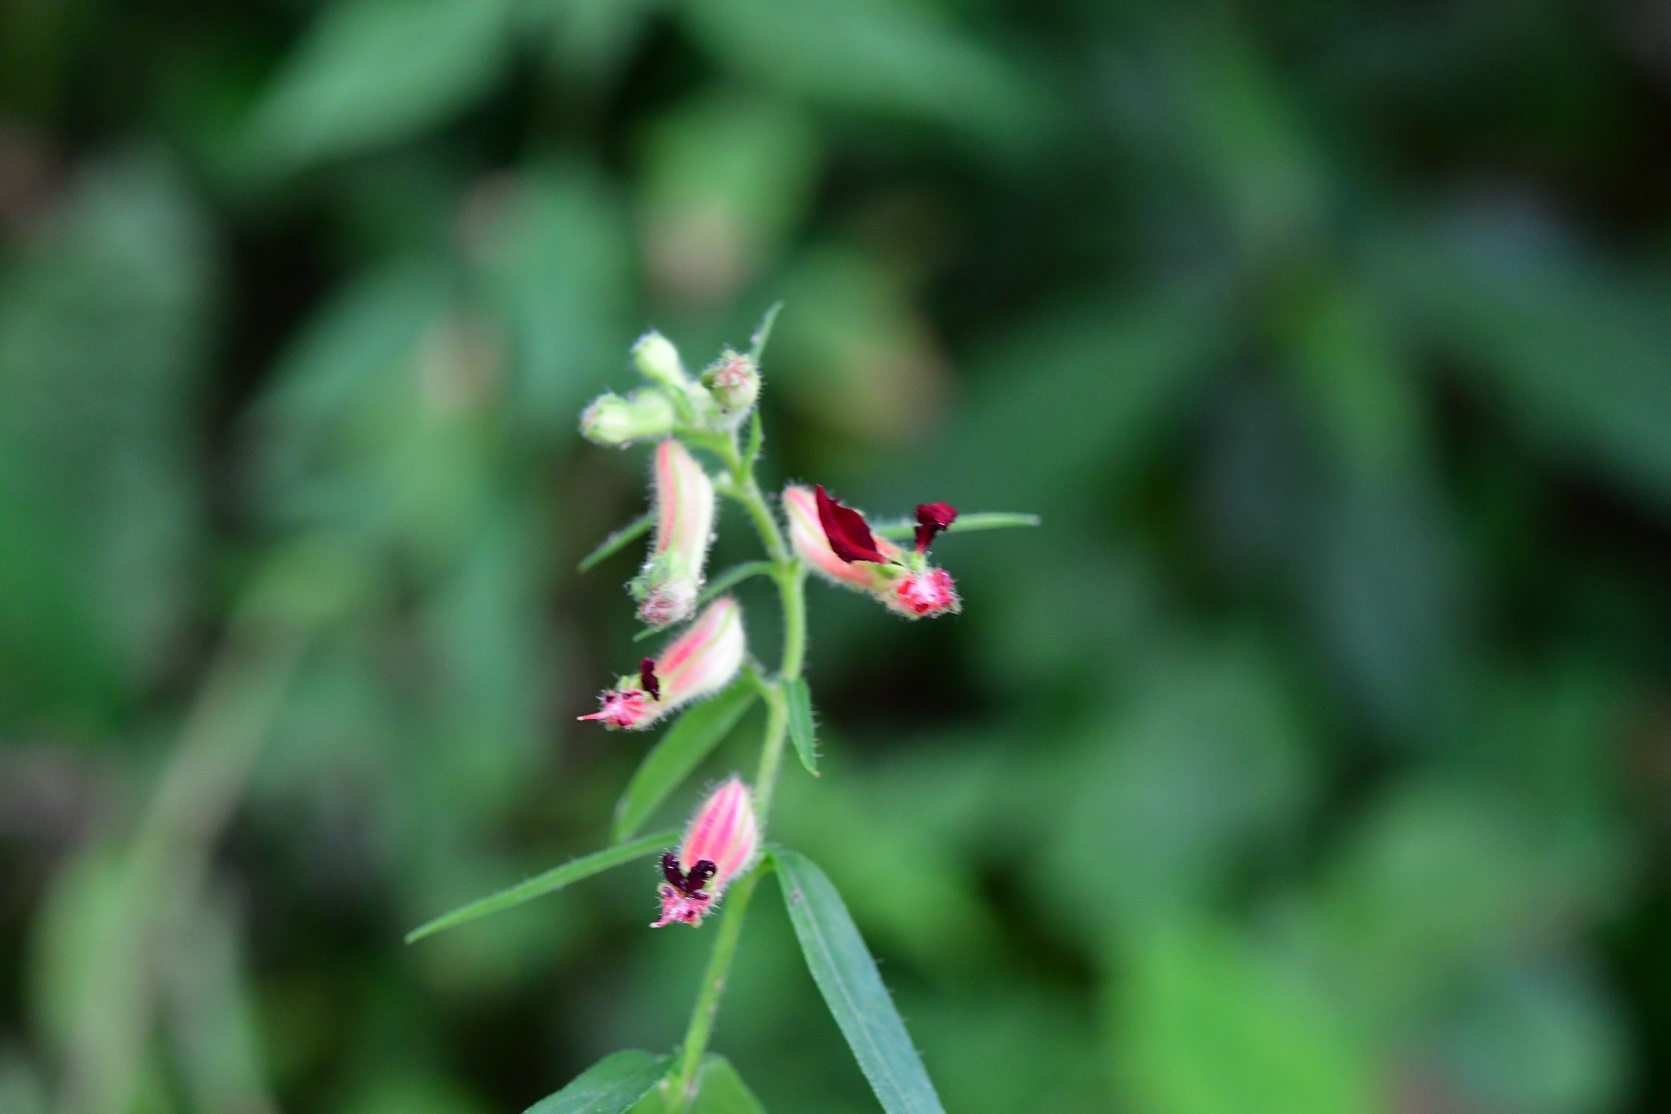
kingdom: Plantae
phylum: Tracheophyta
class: Magnoliopsida
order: Myrtales
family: Lythraceae
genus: Cuphea
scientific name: Cuphea hookeriana
